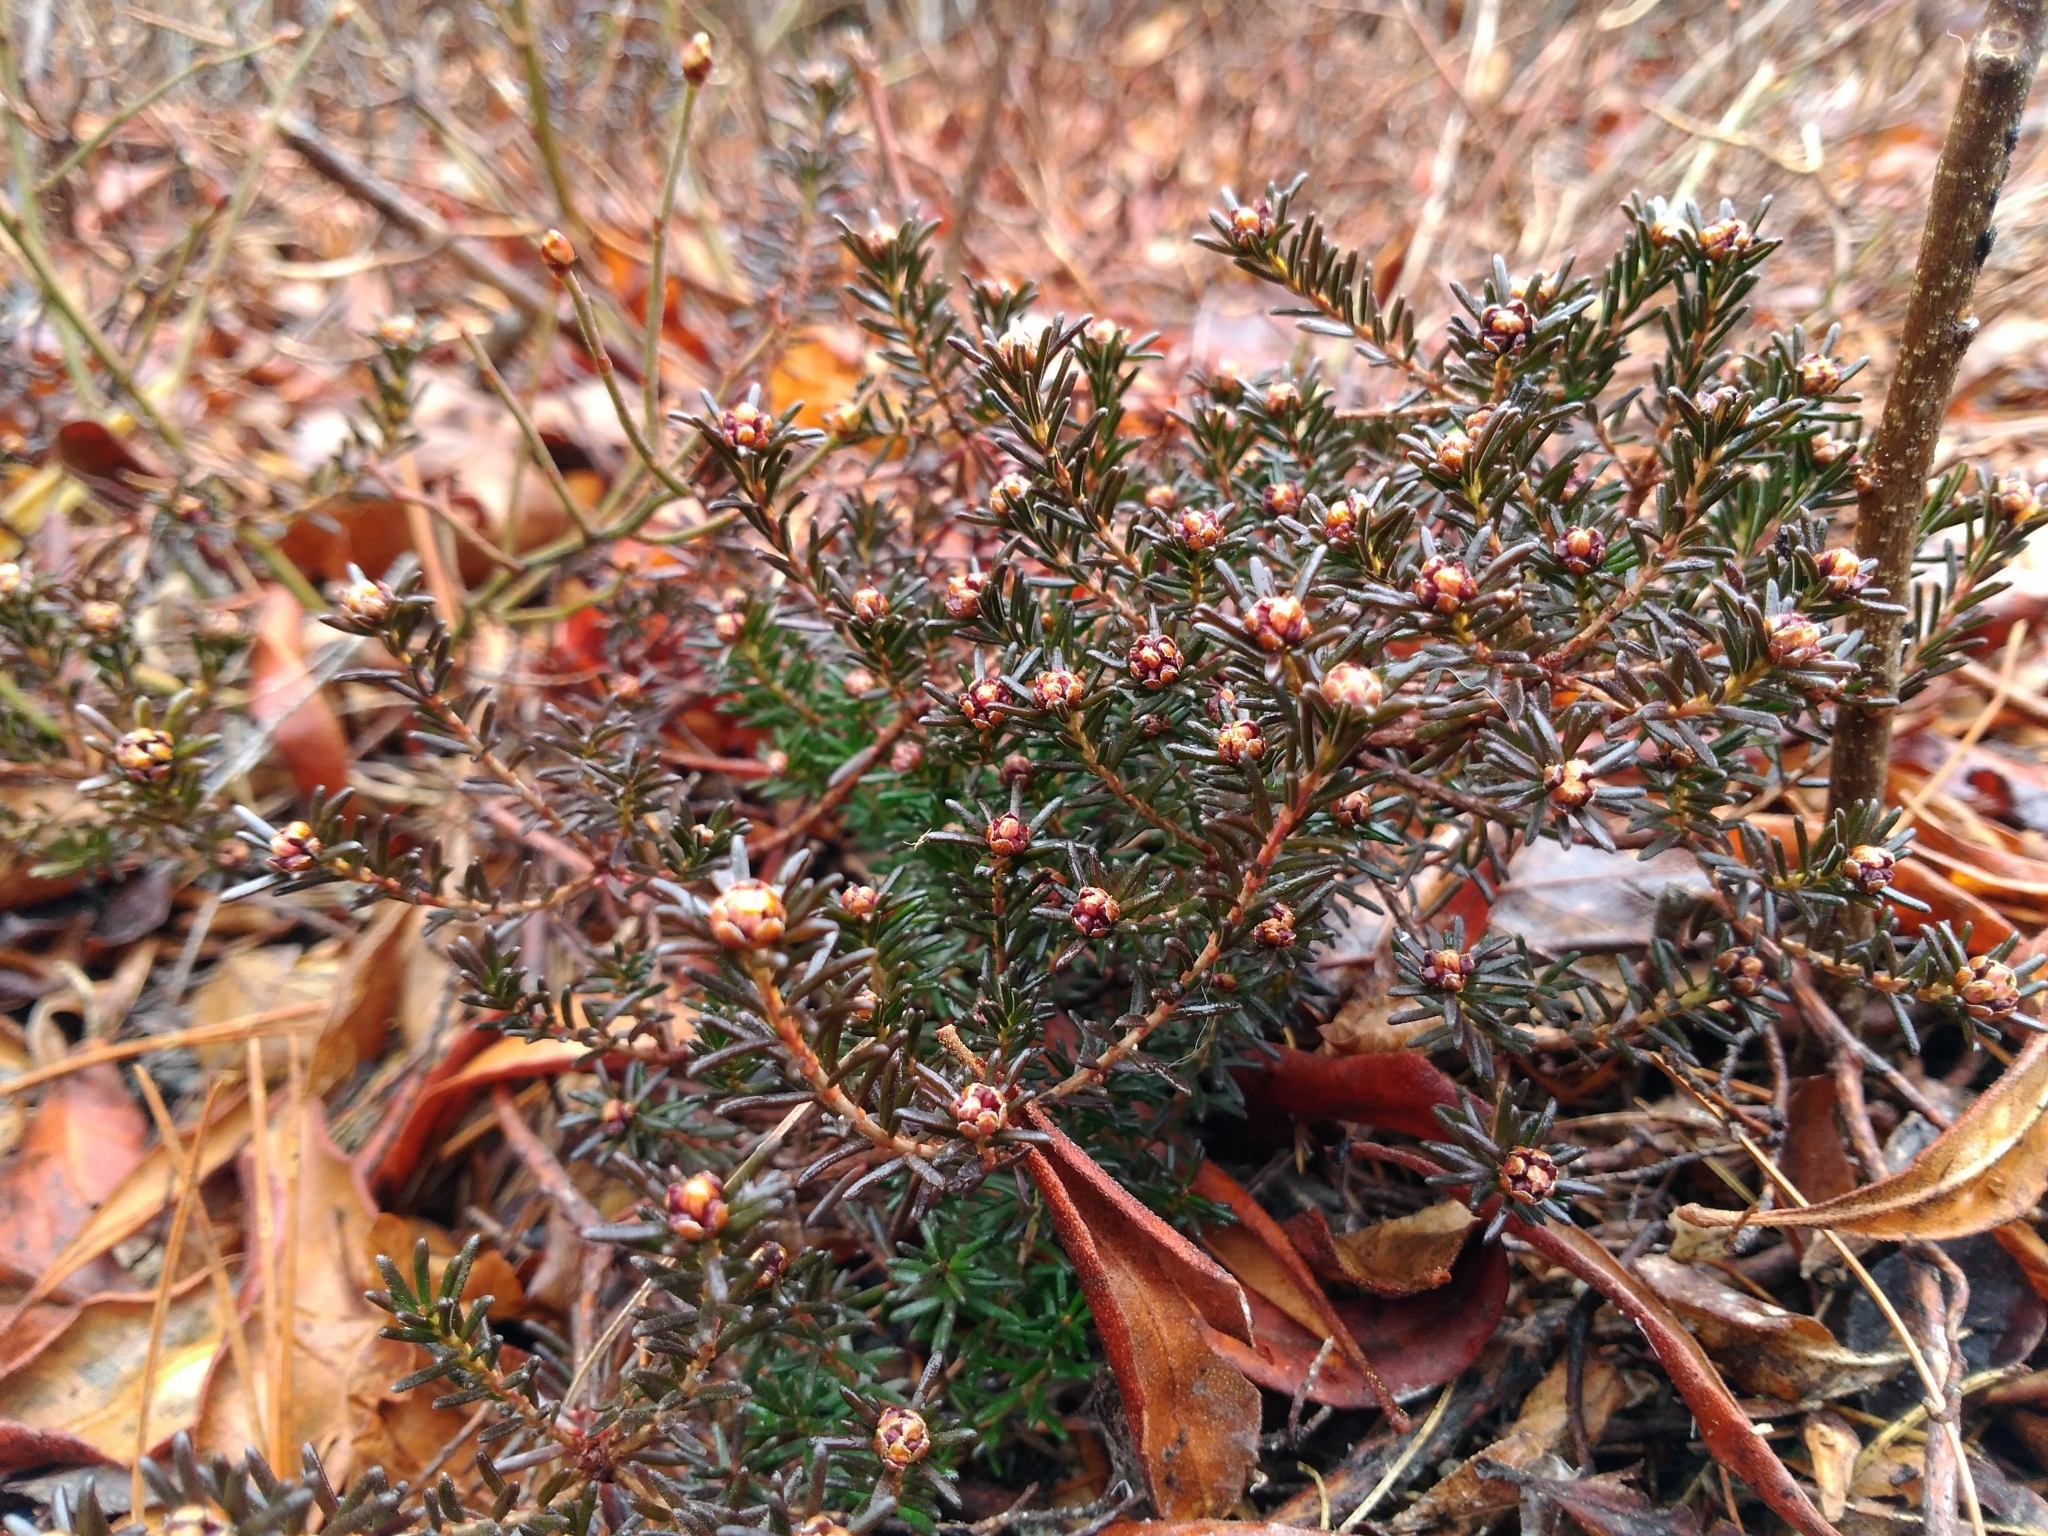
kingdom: Plantae
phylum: Tracheophyta
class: Magnoliopsida
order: Ericales
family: Ericaceae
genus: Corema
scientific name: Corema conradii
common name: Broom-crowberry
